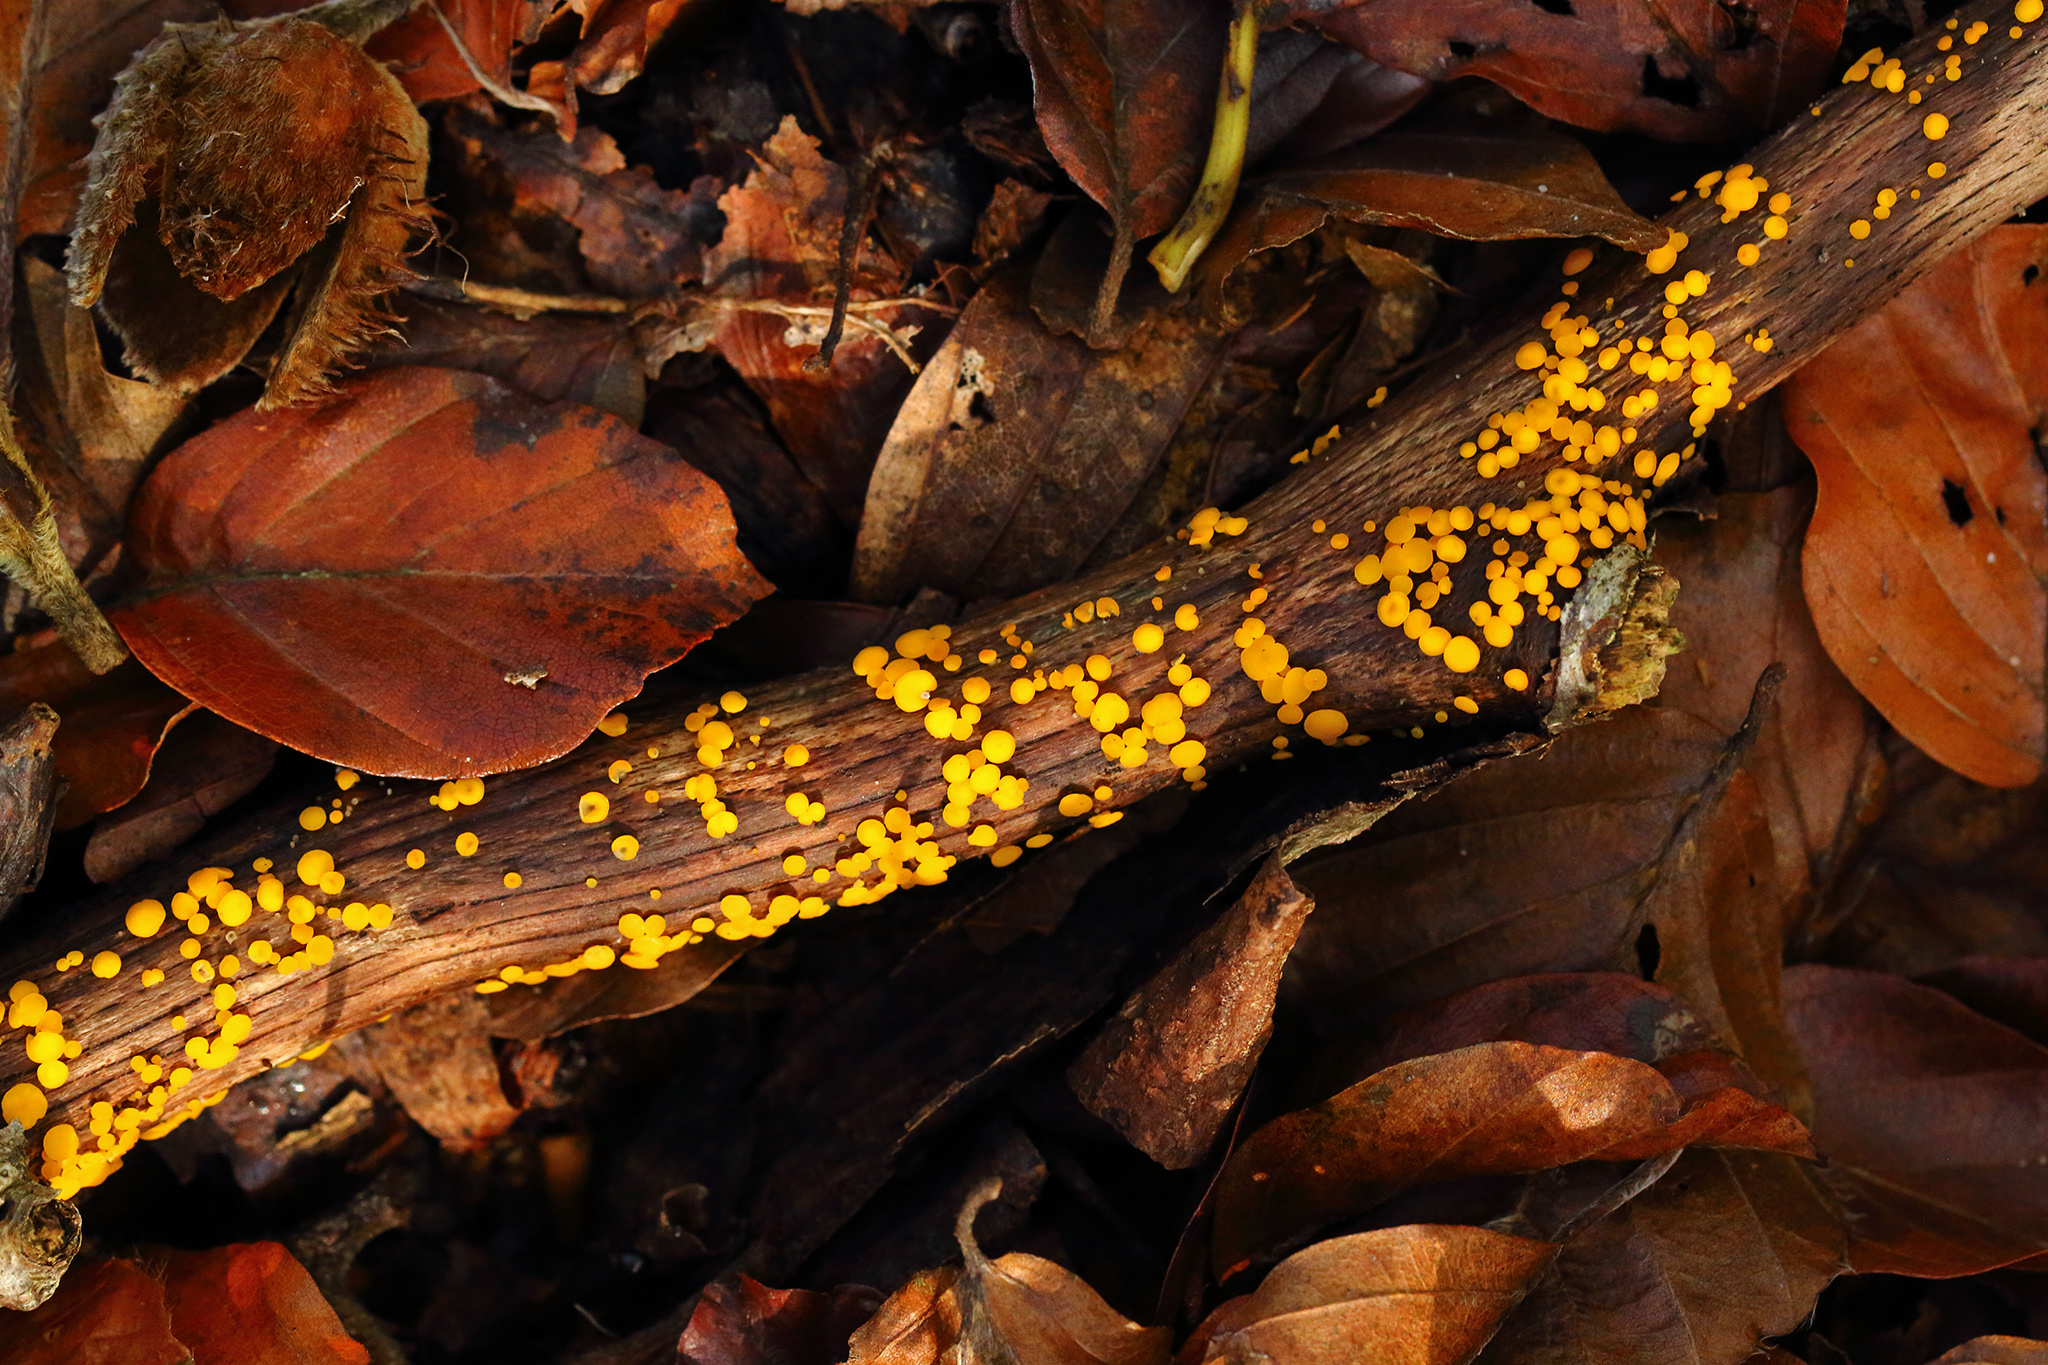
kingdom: Fungi
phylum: Ascomycota
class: Leotiomycetes
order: Helotiales
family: Pezizellaceae
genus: Calycina
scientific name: Calycina citrina
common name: Yellow fairy cups
